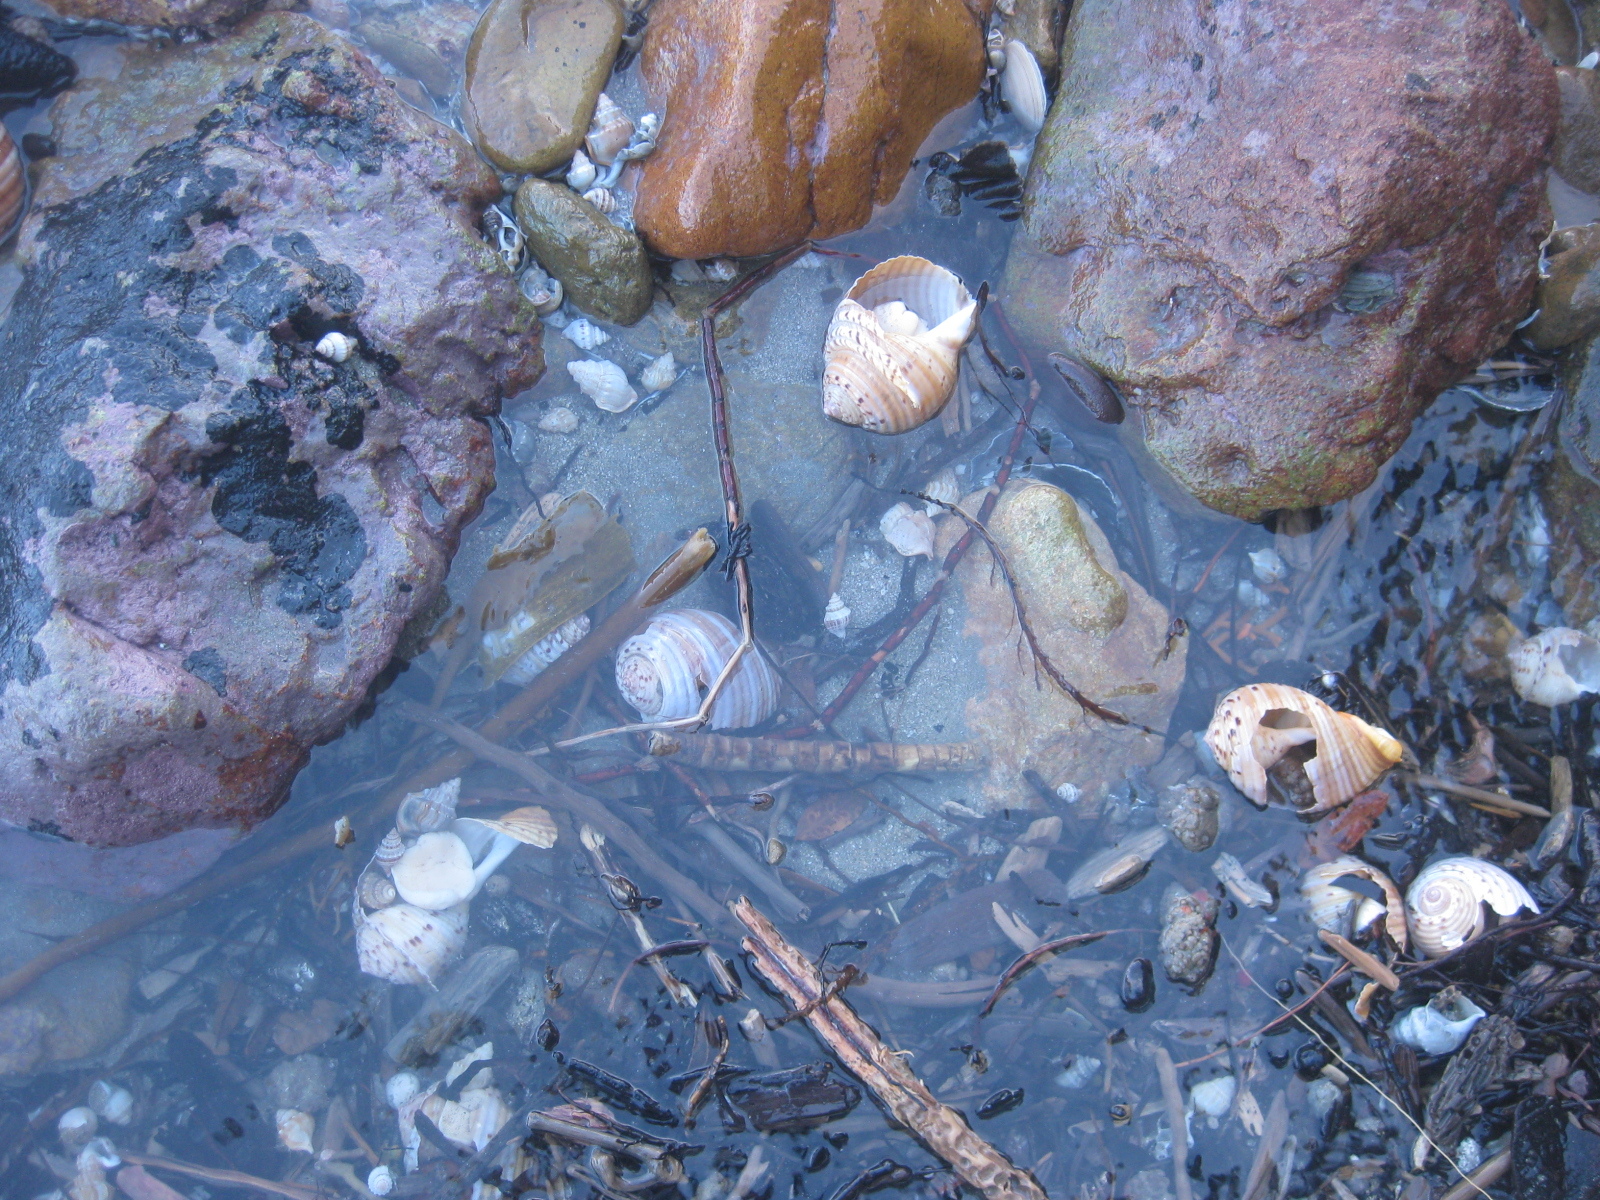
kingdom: Animalia
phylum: Mollusca
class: Gastropoda
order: Littorinimorpha
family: Tonnidae
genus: Tonna
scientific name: Tonna tankervillii
